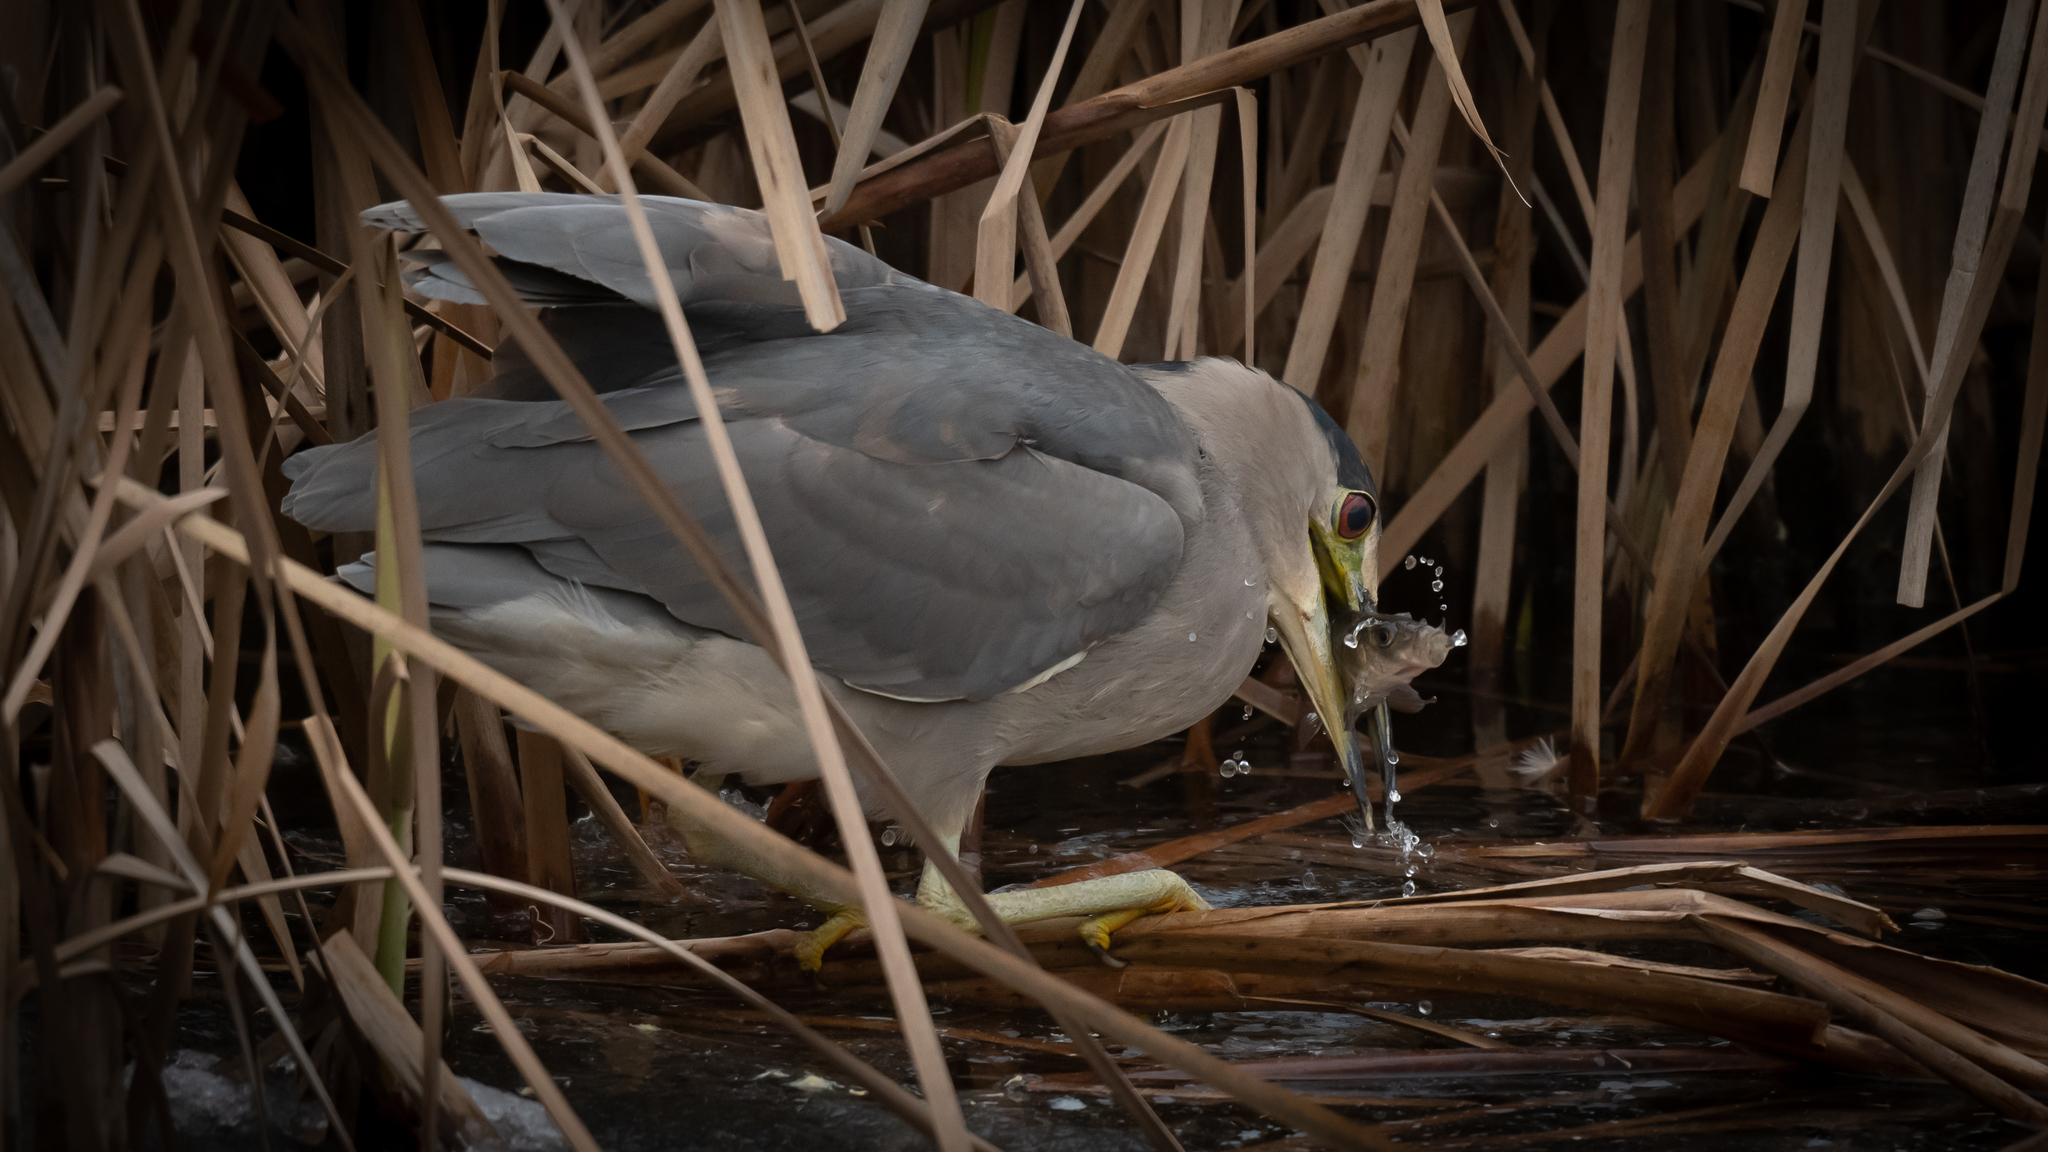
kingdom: Animalia
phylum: Chordata
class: Aves
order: Pelecaniformes
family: Ardeidae
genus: Nycticorax
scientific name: Nycticorax nycticorax
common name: Black-crowned night heron
